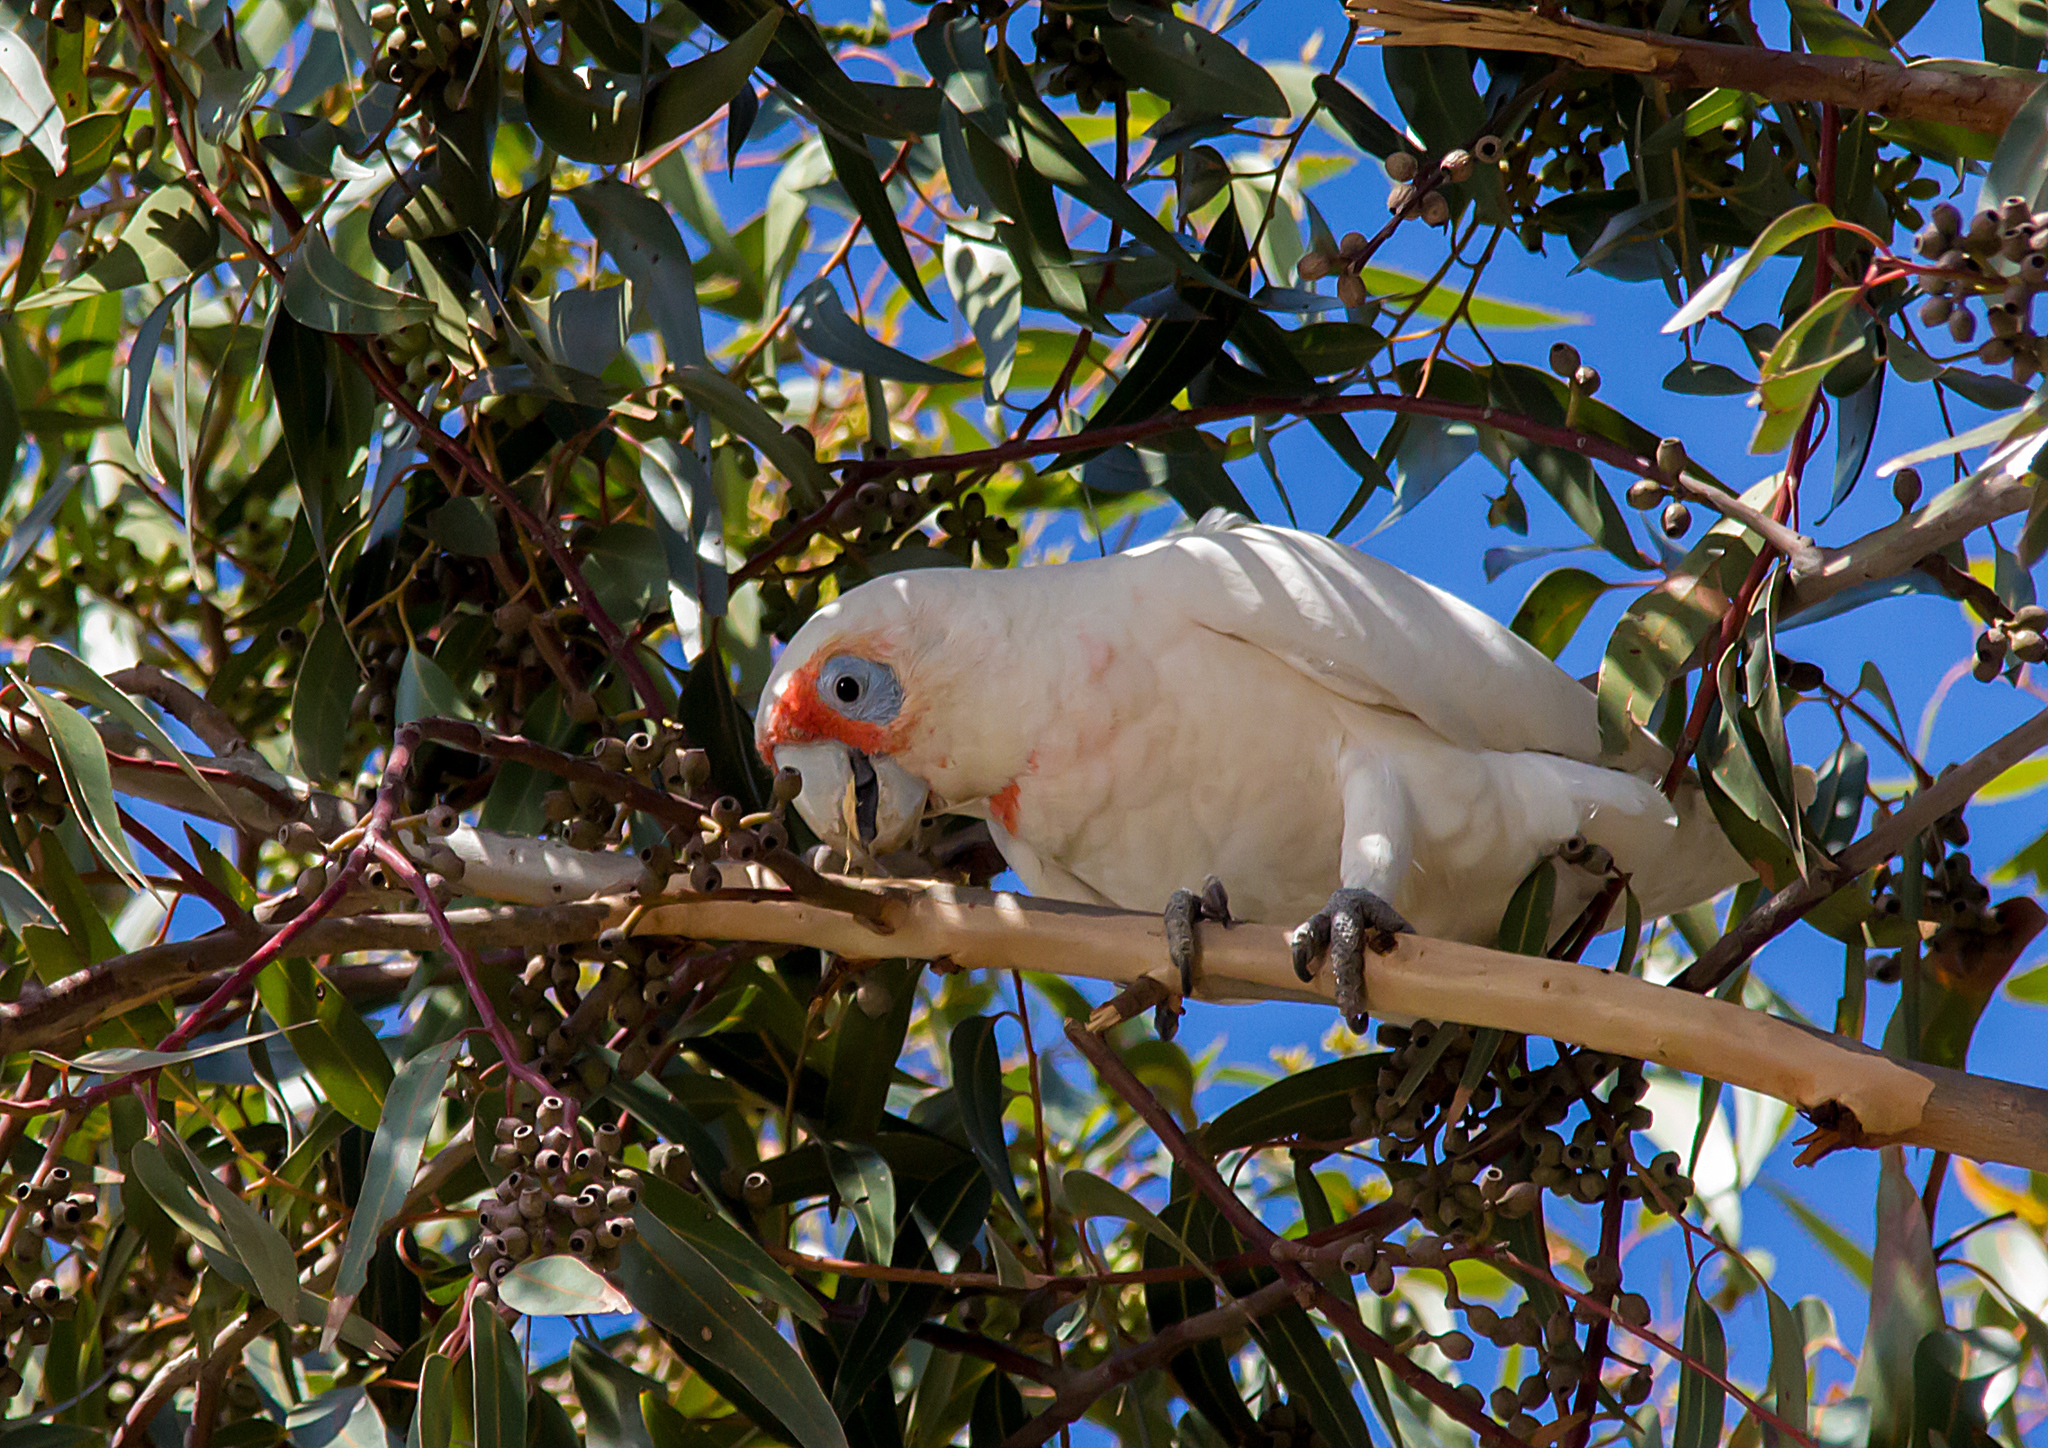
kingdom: Animalia
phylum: Chordata
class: Aves
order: Psittaciformes
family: Psittacidae
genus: Cacatua
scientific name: Cacatua tenuirostris
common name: Long-billed corella
